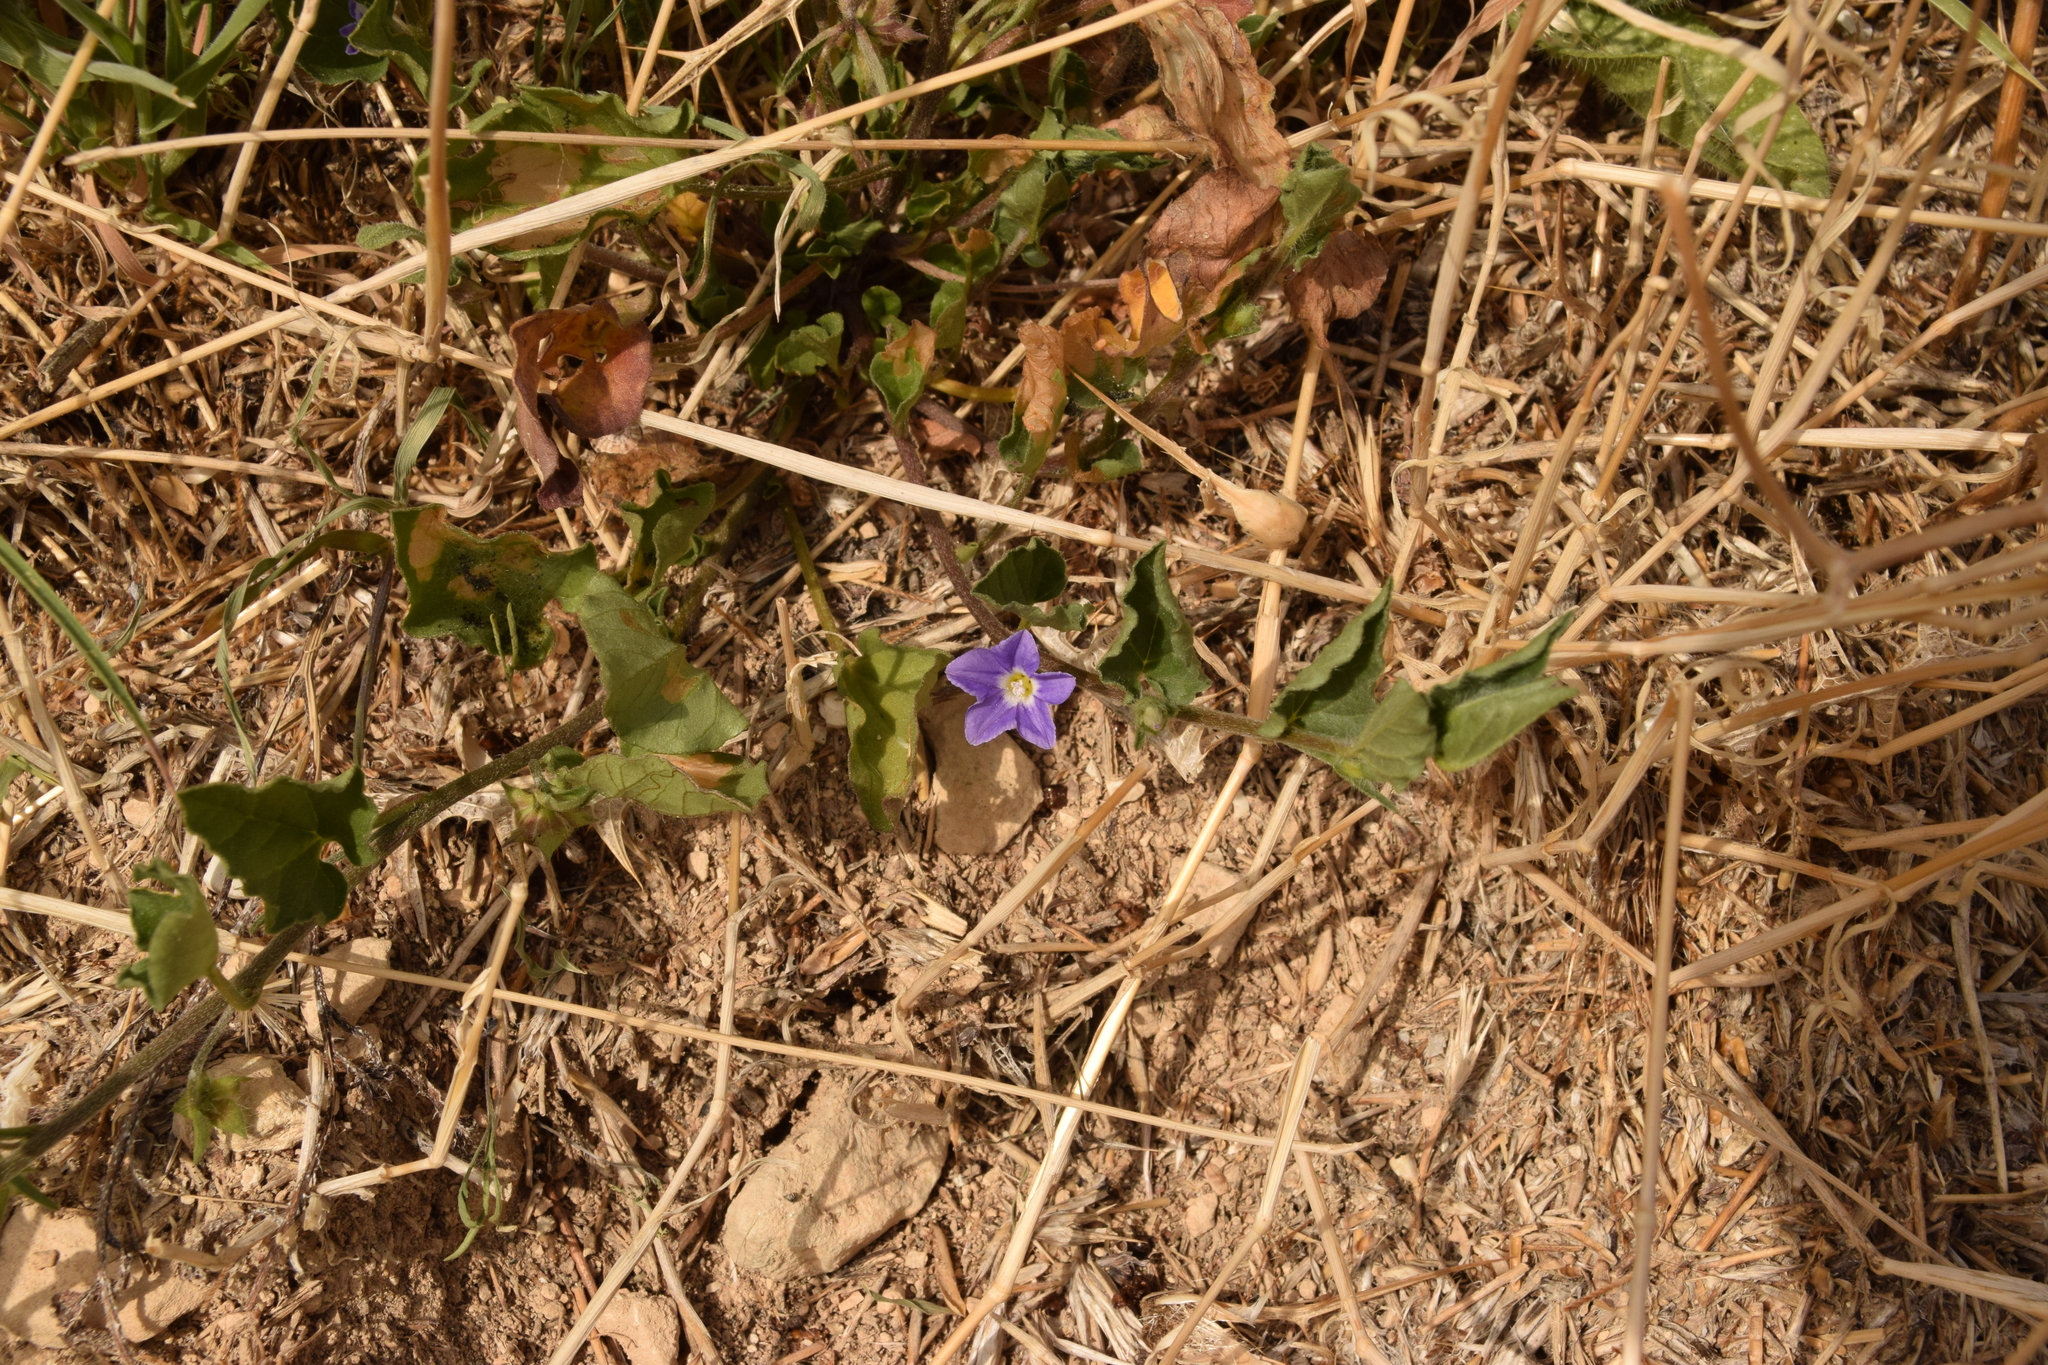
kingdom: Plantae
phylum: Tracheophyta
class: Magnoliopsida
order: Solanales
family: Convolvulaceae
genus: Convolvulus
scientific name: Convolvulus siculus
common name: Small blue-convolvulus
